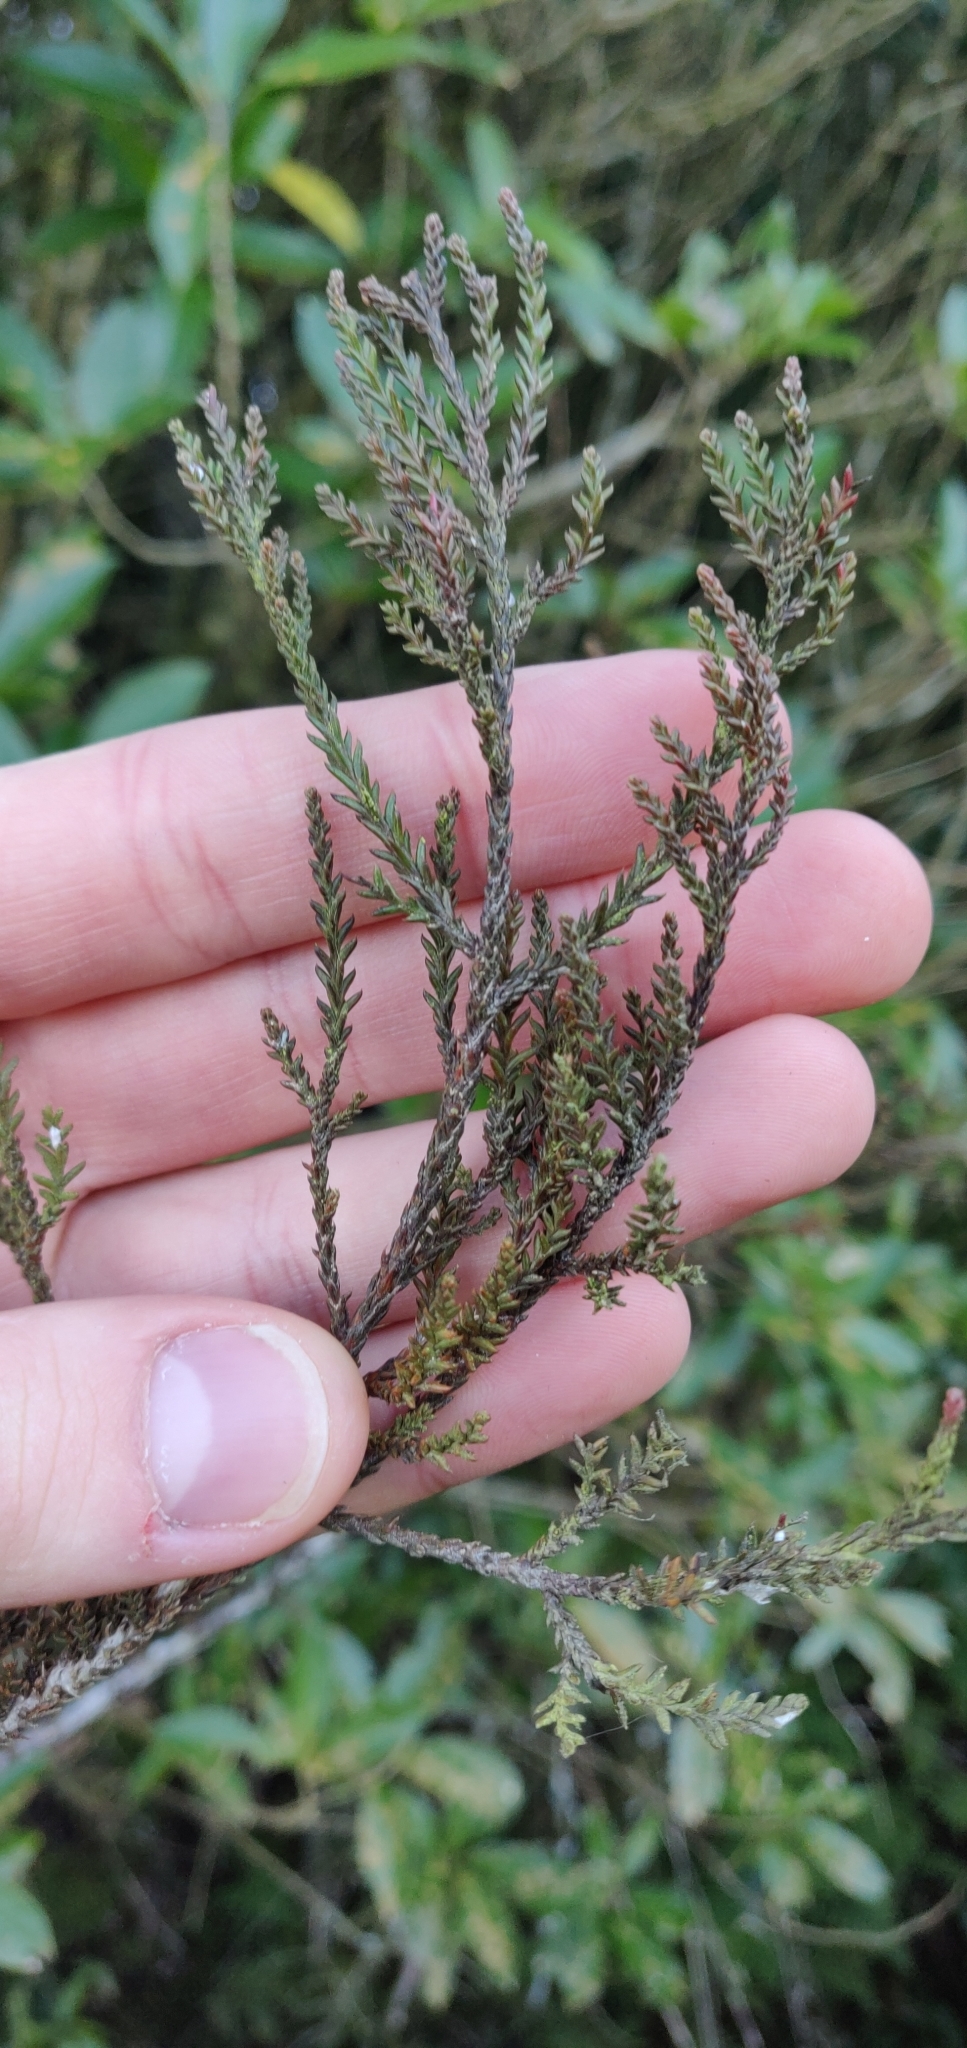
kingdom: Plantae
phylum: Tracheophyta
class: Pinopsida
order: Pinales
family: Podocarpaceae
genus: Dacrycarpus
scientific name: Dacrycarpus dacrydioides
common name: White pine
